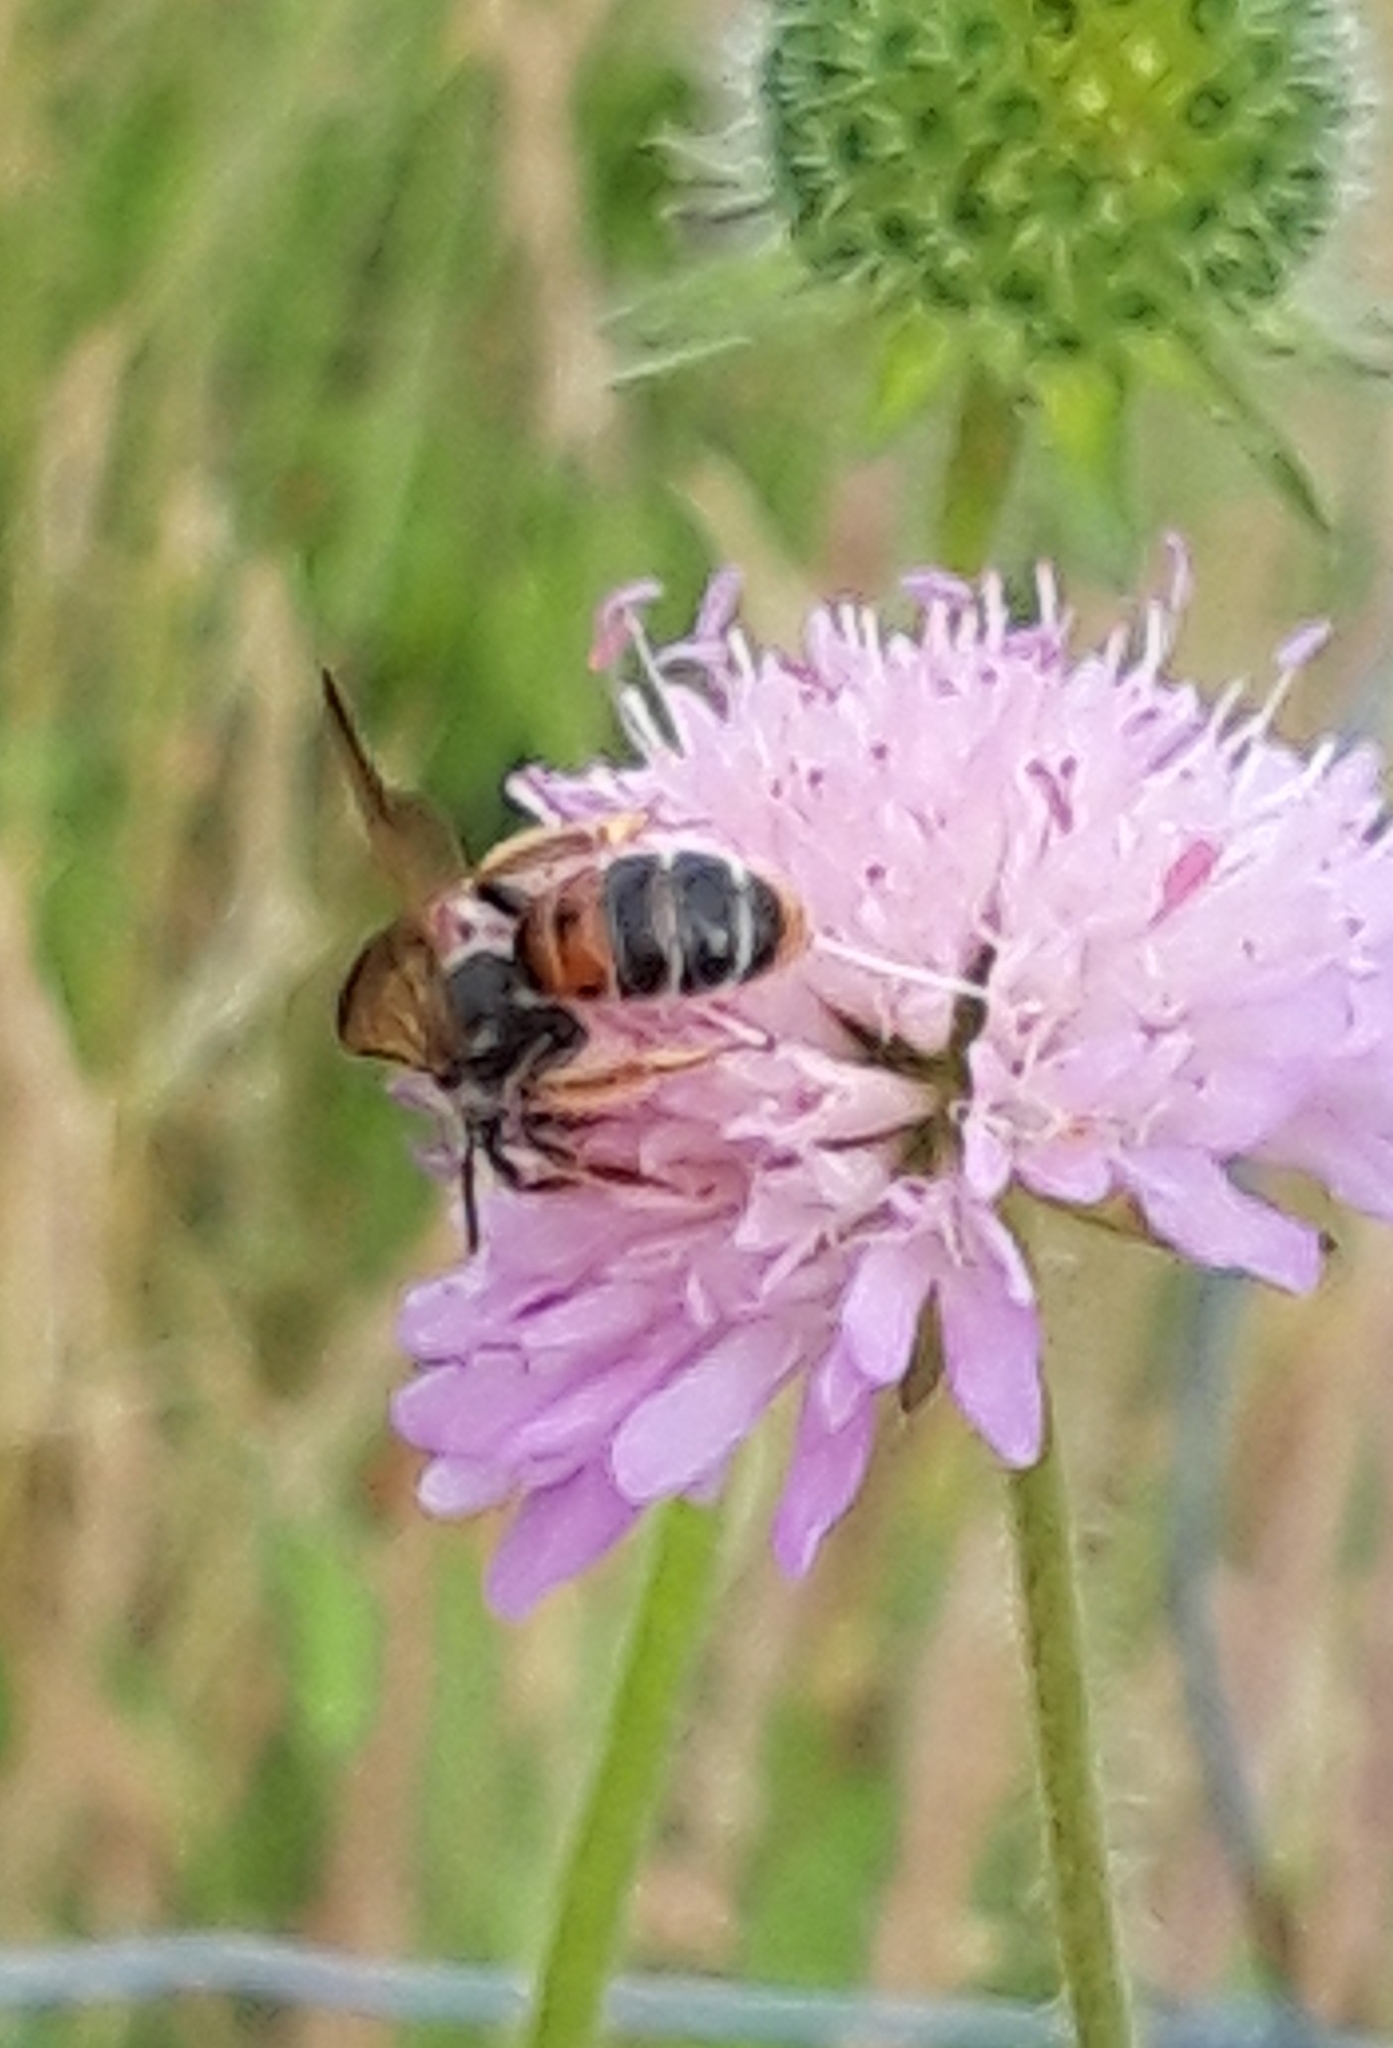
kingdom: Animalia
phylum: Arthropoda
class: Insecta
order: Hymenoptera
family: Andrenidae
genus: Andrena
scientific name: Andrena hattorfiana
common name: Large scabious mining bee
